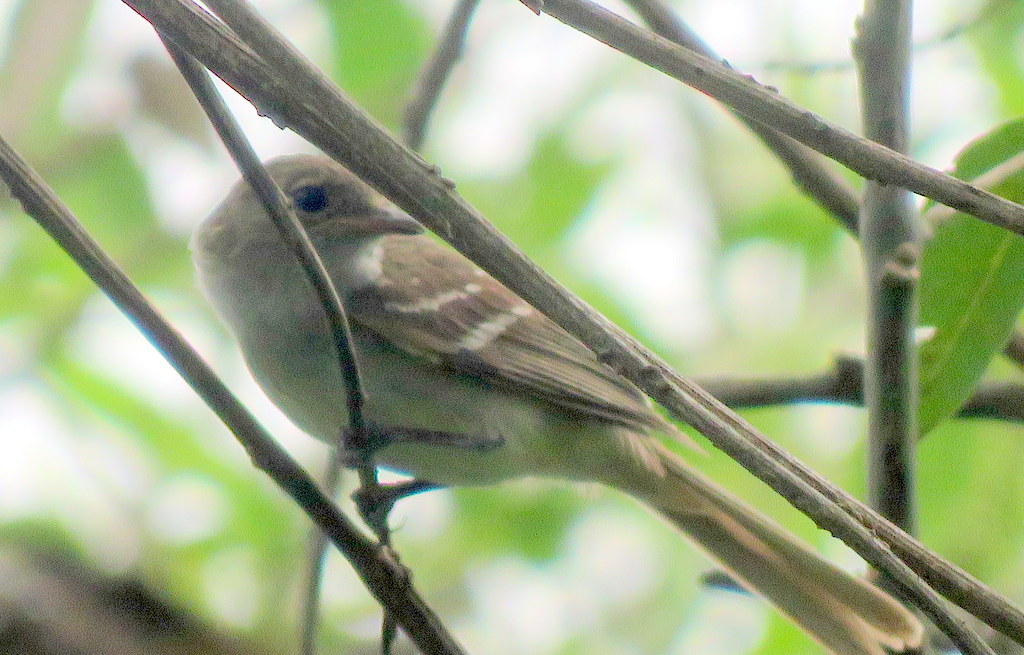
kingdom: Animalia
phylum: Chordata
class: Aves
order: Passeriformes
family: Tyrannidae
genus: Elaenia
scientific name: Elaenia parvirostris
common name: Small-billed elaenia
